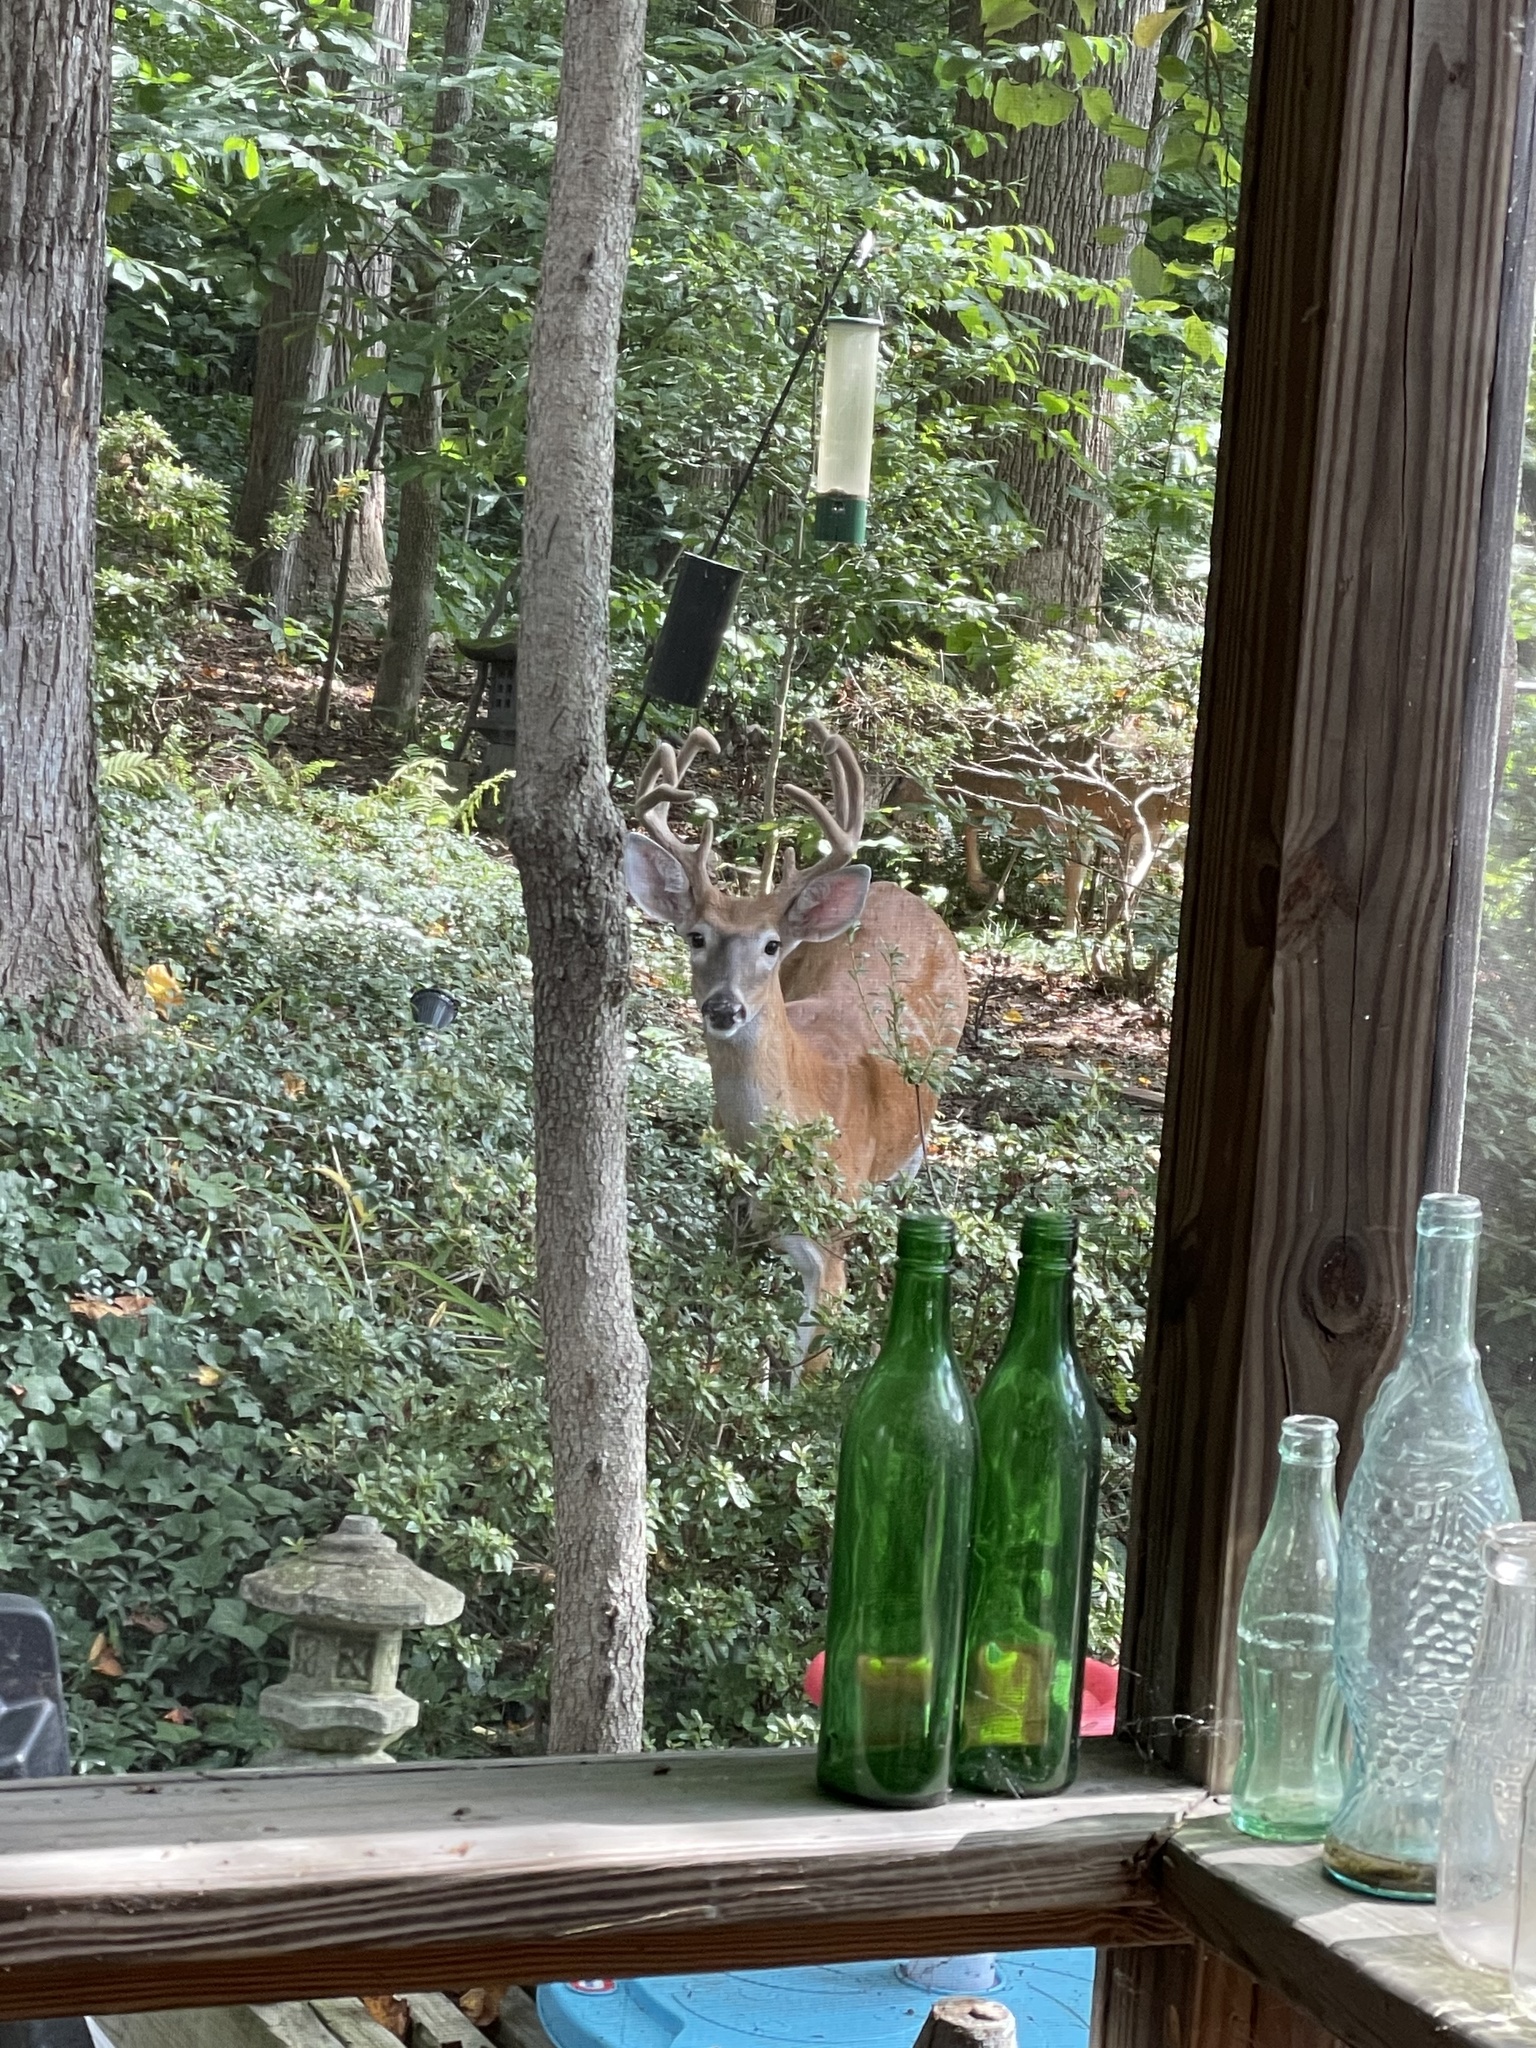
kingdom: Animalia
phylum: Chordata
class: Mammalia
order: Artiodactyla
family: Cervidae
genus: Odocoileus
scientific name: Odocoileus virginianus
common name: White-tailed deer
